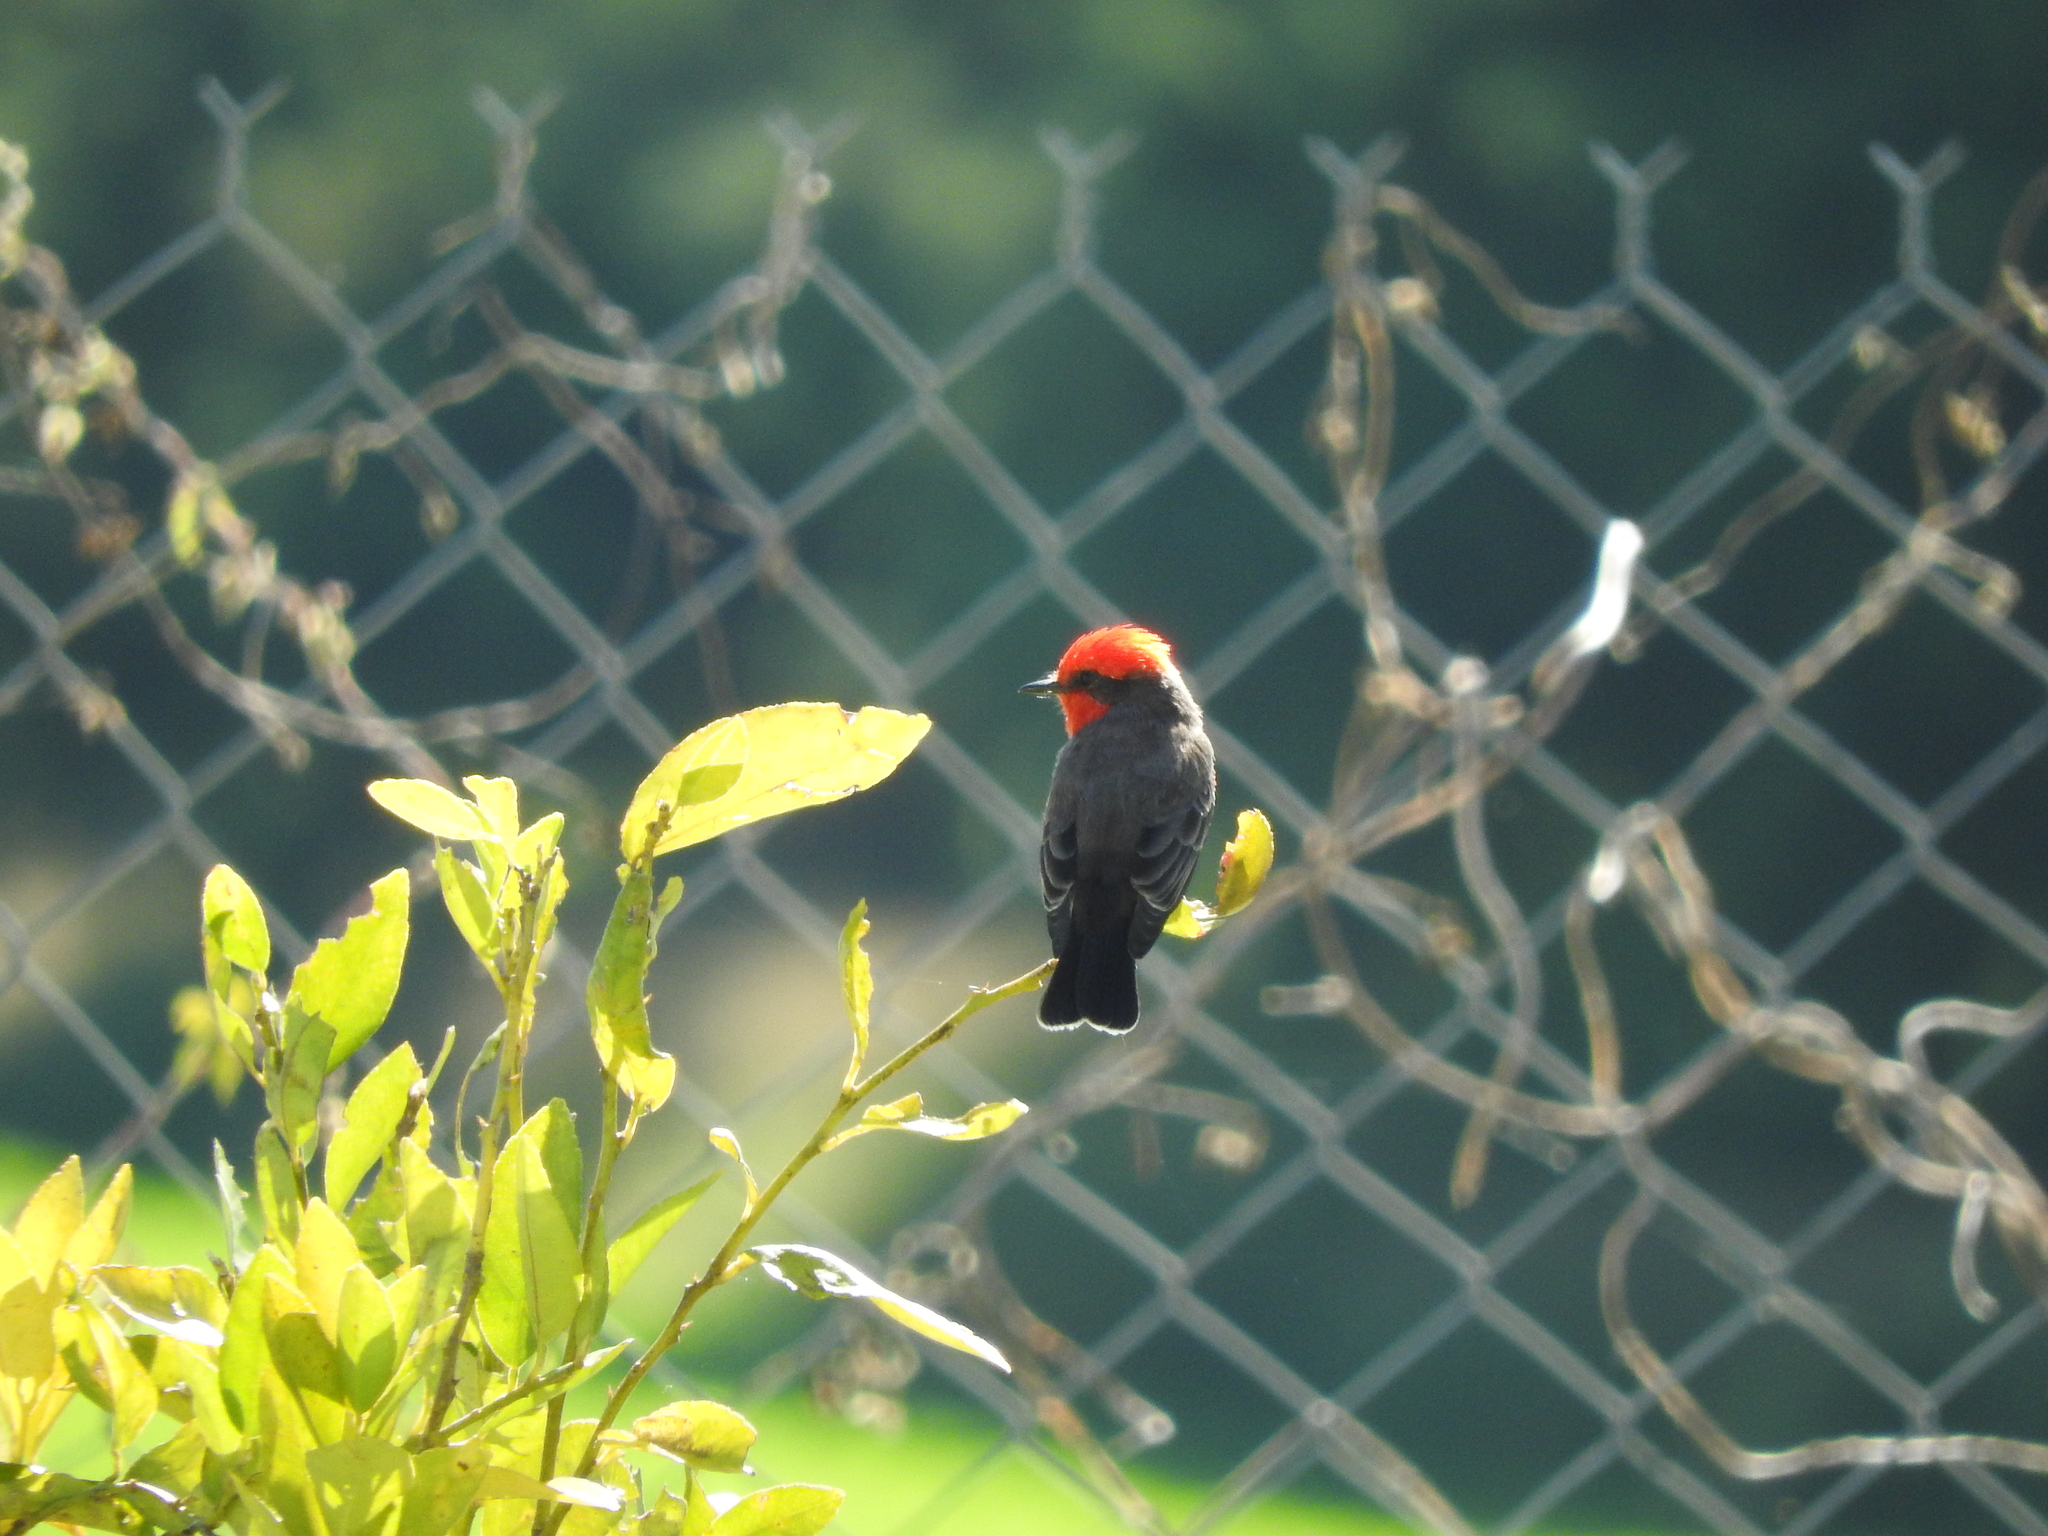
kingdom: Animalia
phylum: Chordata
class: Aves
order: Passeriformes
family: Tyrannidae
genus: Pyrocephalus
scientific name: Pyrocephalus rubinus
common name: Vermilion flycatcher
